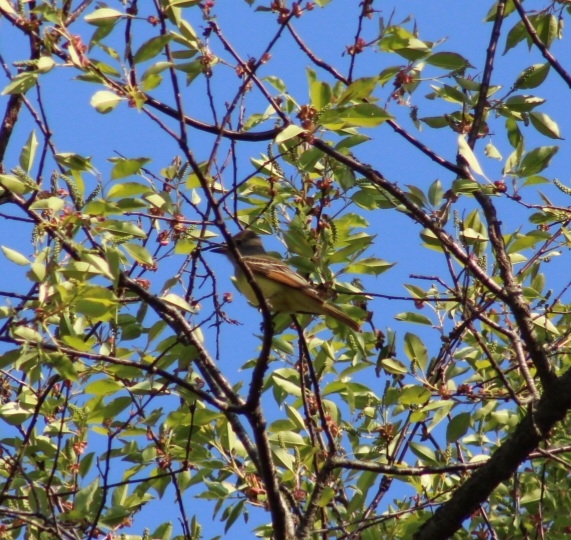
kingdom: Animalia
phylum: Chordata
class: Aves
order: Passeriformes
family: Tyrannidae
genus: Myiarchus
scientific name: Myiarchus crinitus
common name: Great crested flycatcher
